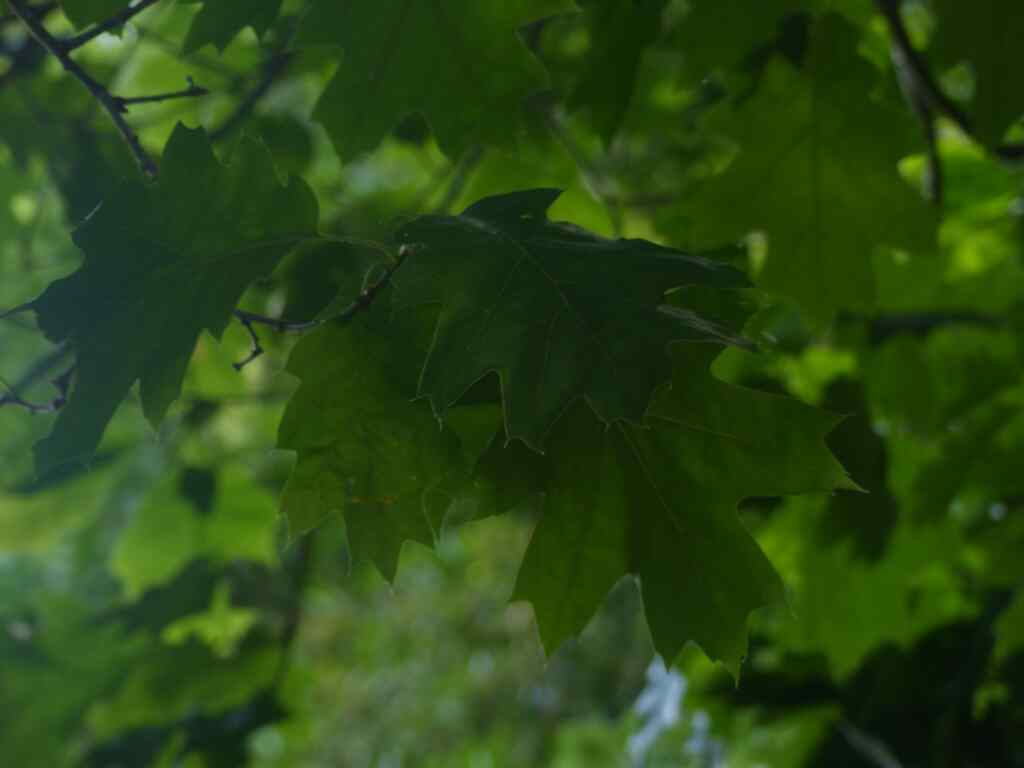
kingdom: Plantae
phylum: Tracheophyta
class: Magnoliopsida
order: Fagales
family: Fagaceae
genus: Quercus
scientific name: Quercus rubra
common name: Red oak
